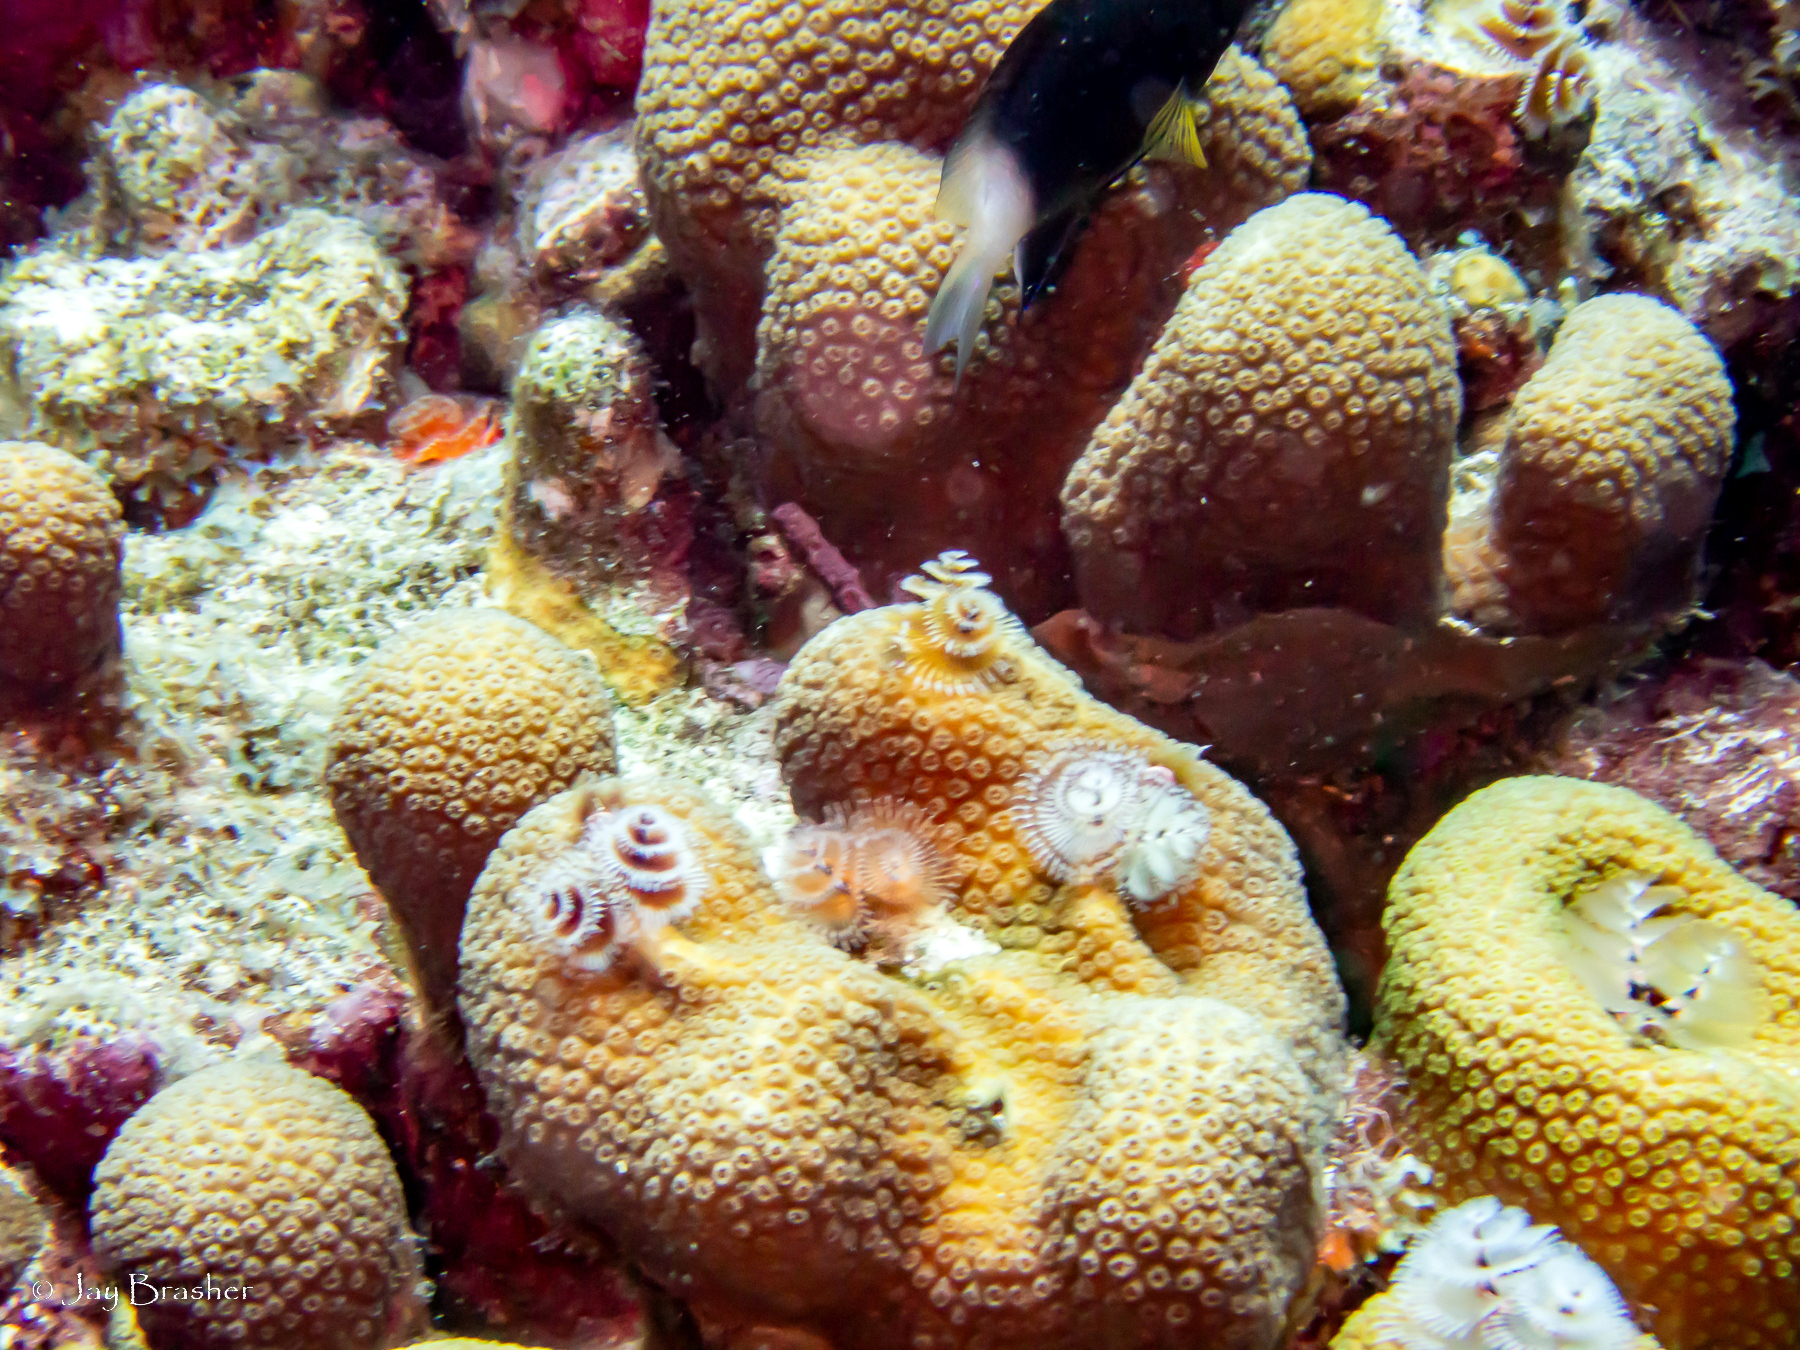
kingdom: Animalia
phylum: Cnidaria
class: Anthozoa
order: Scleractinia
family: Merulinidae
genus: Orbicella
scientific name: Orbicella annularis
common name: Boulder star coral
